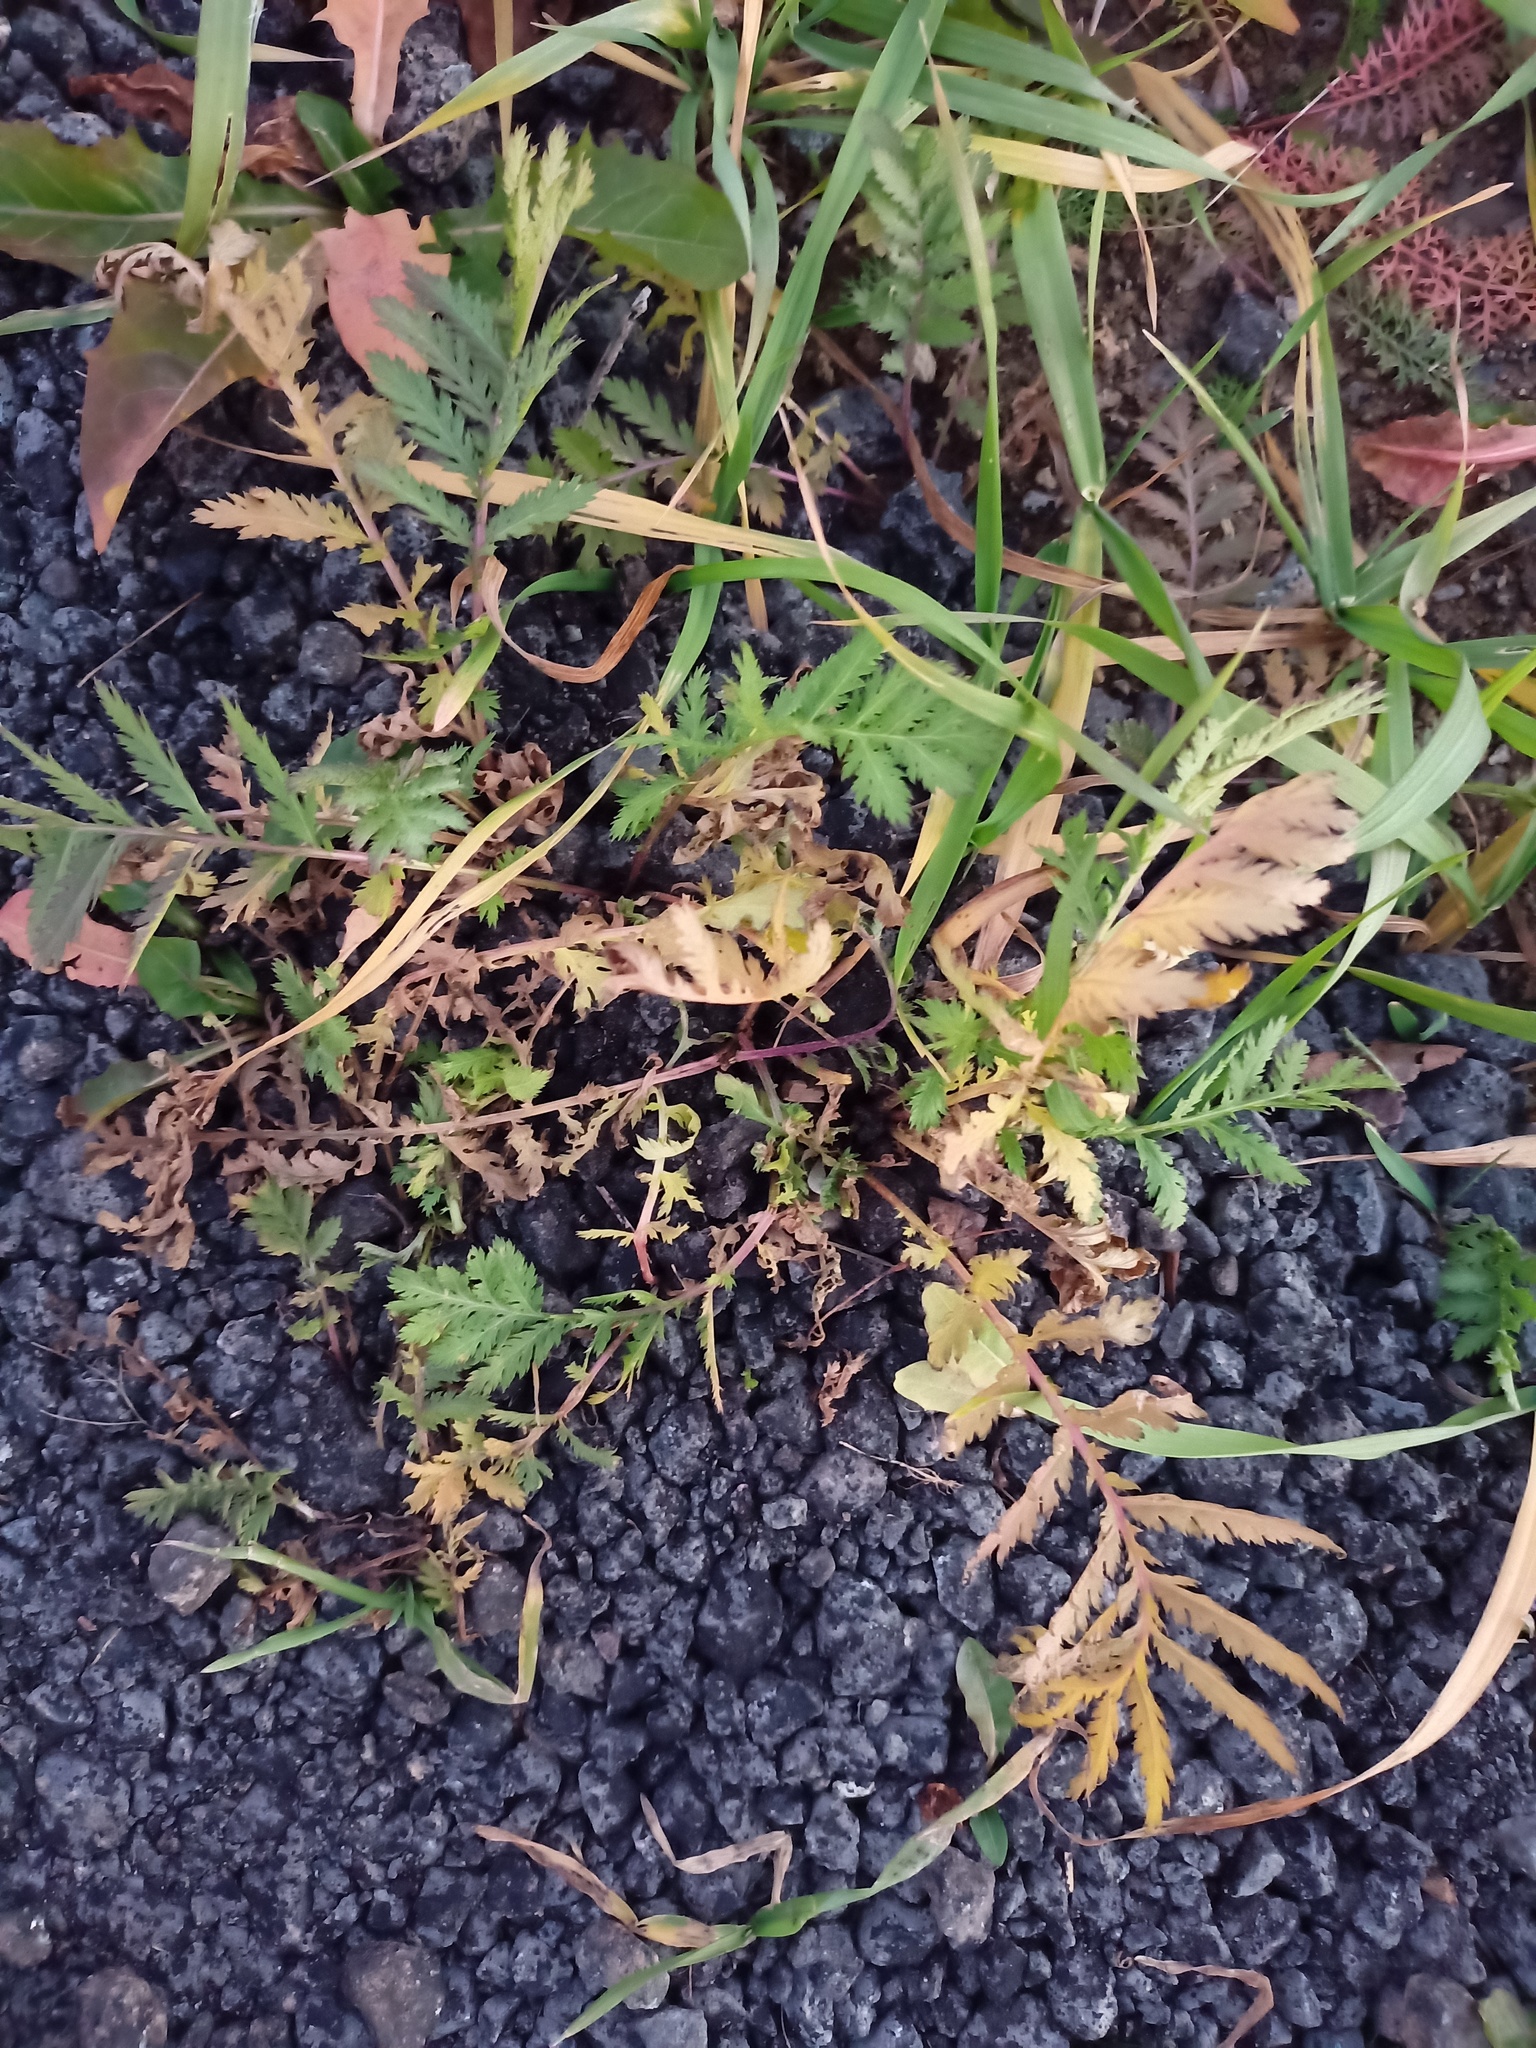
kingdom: Plantae
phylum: Tracheophyta
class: Magnoliopsida
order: Asterales
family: Asteraceae
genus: Tanacetum
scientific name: Tanacetum vulgare
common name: Common tansy
